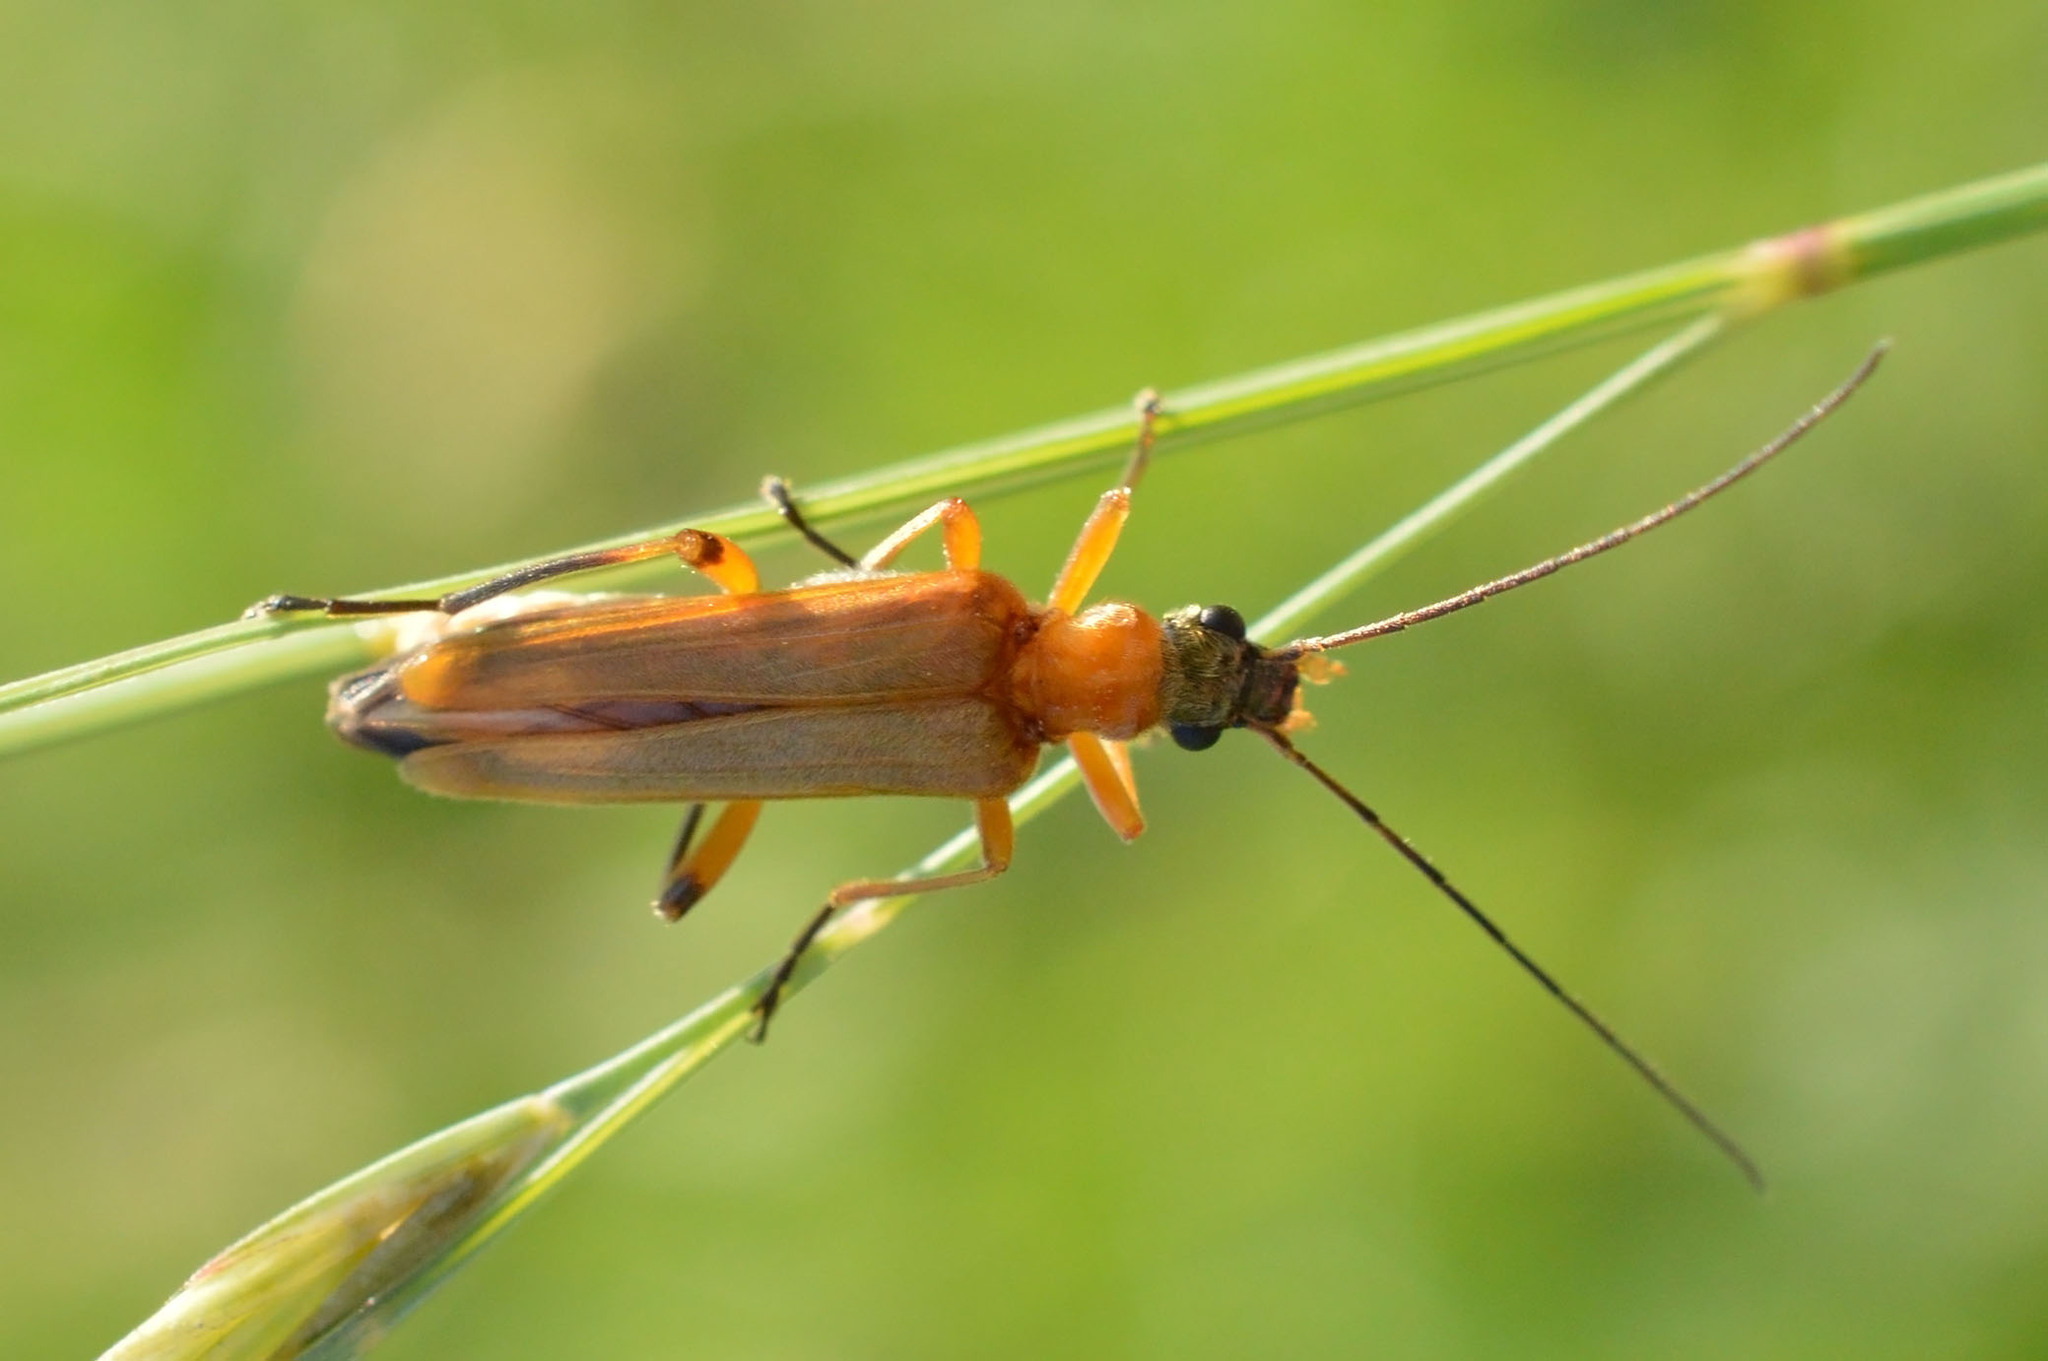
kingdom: Animalia
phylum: Arthropoda
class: Insecta
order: Coleoptera
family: Oedemeridae
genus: Oedemera
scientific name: Oedemera podagrariae
